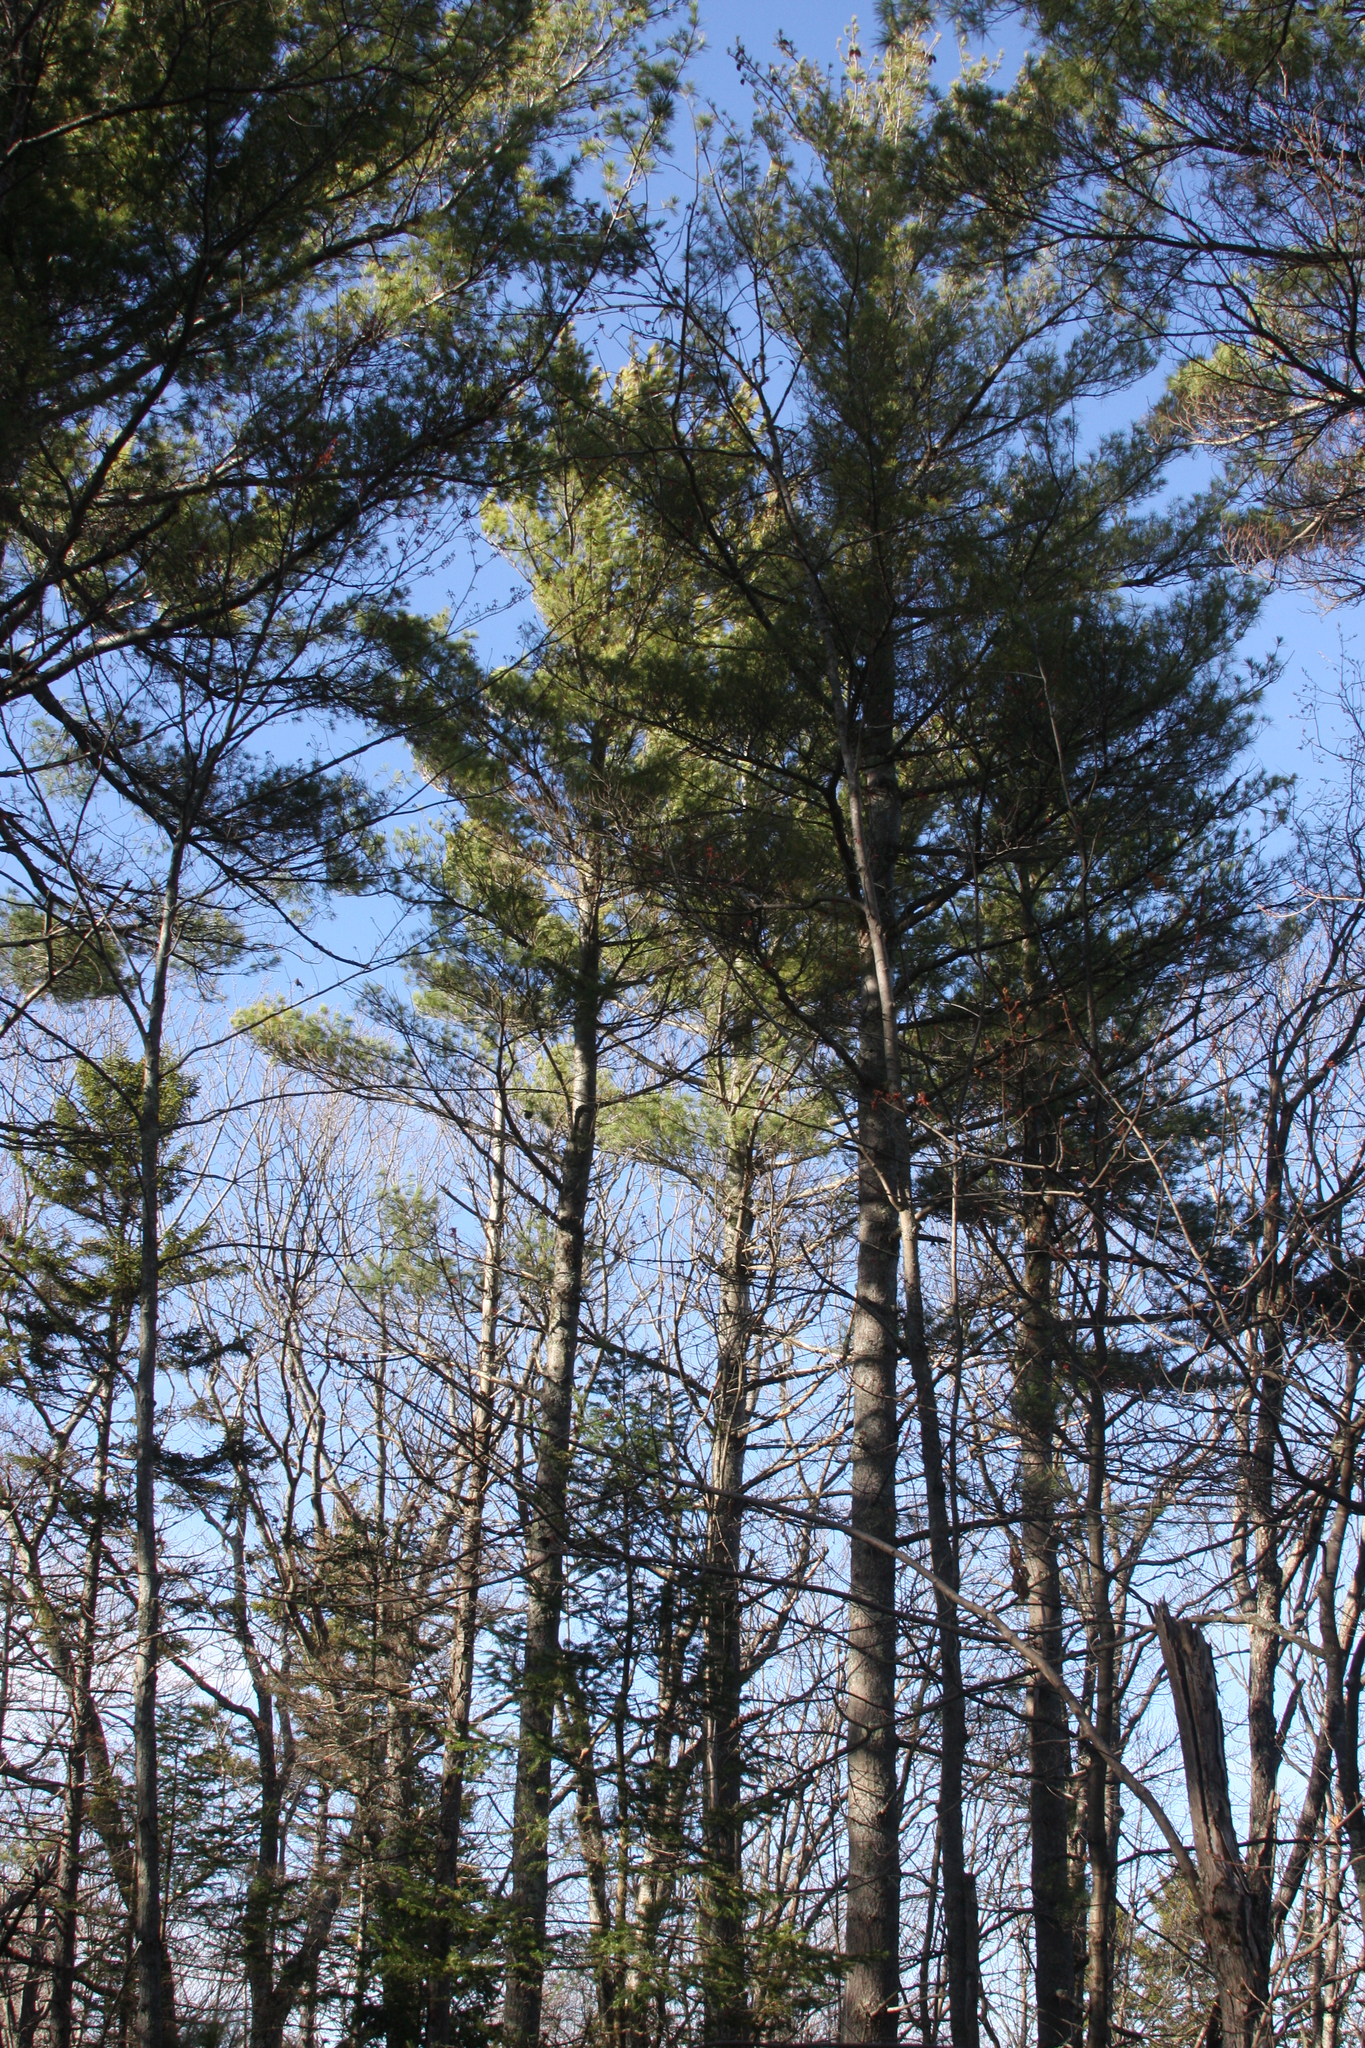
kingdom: Plantae
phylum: Tracheophyta
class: Pinopsida
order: Pinales
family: Pinaceae
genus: Pinus
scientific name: Pinus strobus
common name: Weymouth pine
